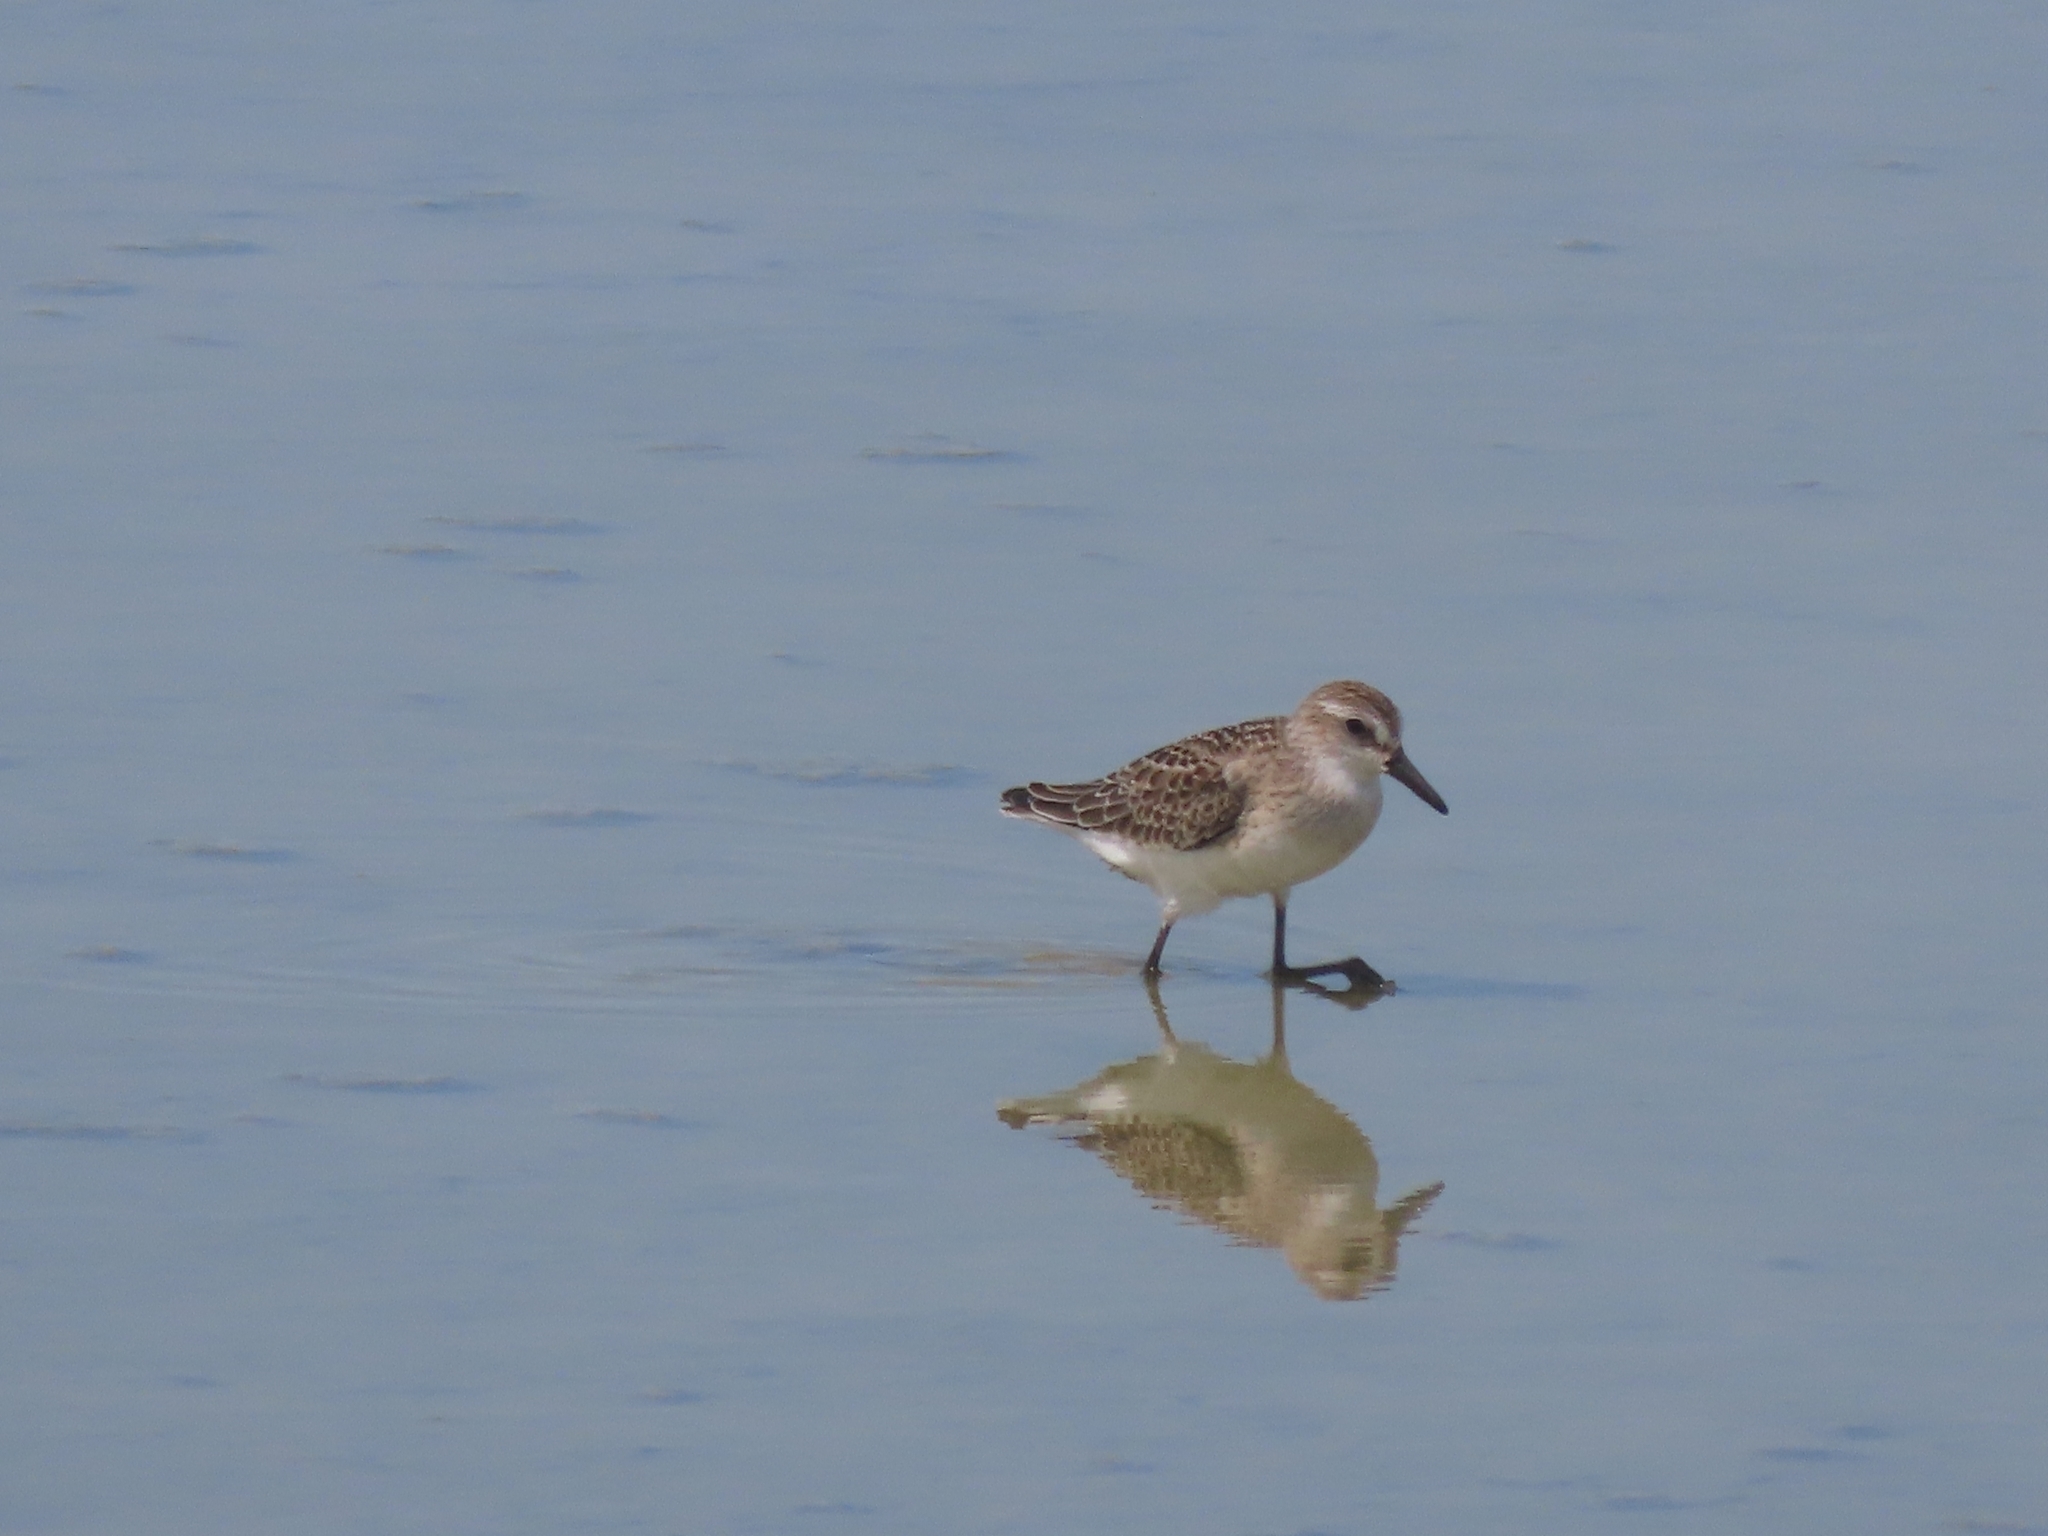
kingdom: Animalia
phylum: Chordata
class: Aves
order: Charadriiformes
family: Scolopacidae
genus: Calidris
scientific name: Calidris pusilla
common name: Semipalmated sandpiper
